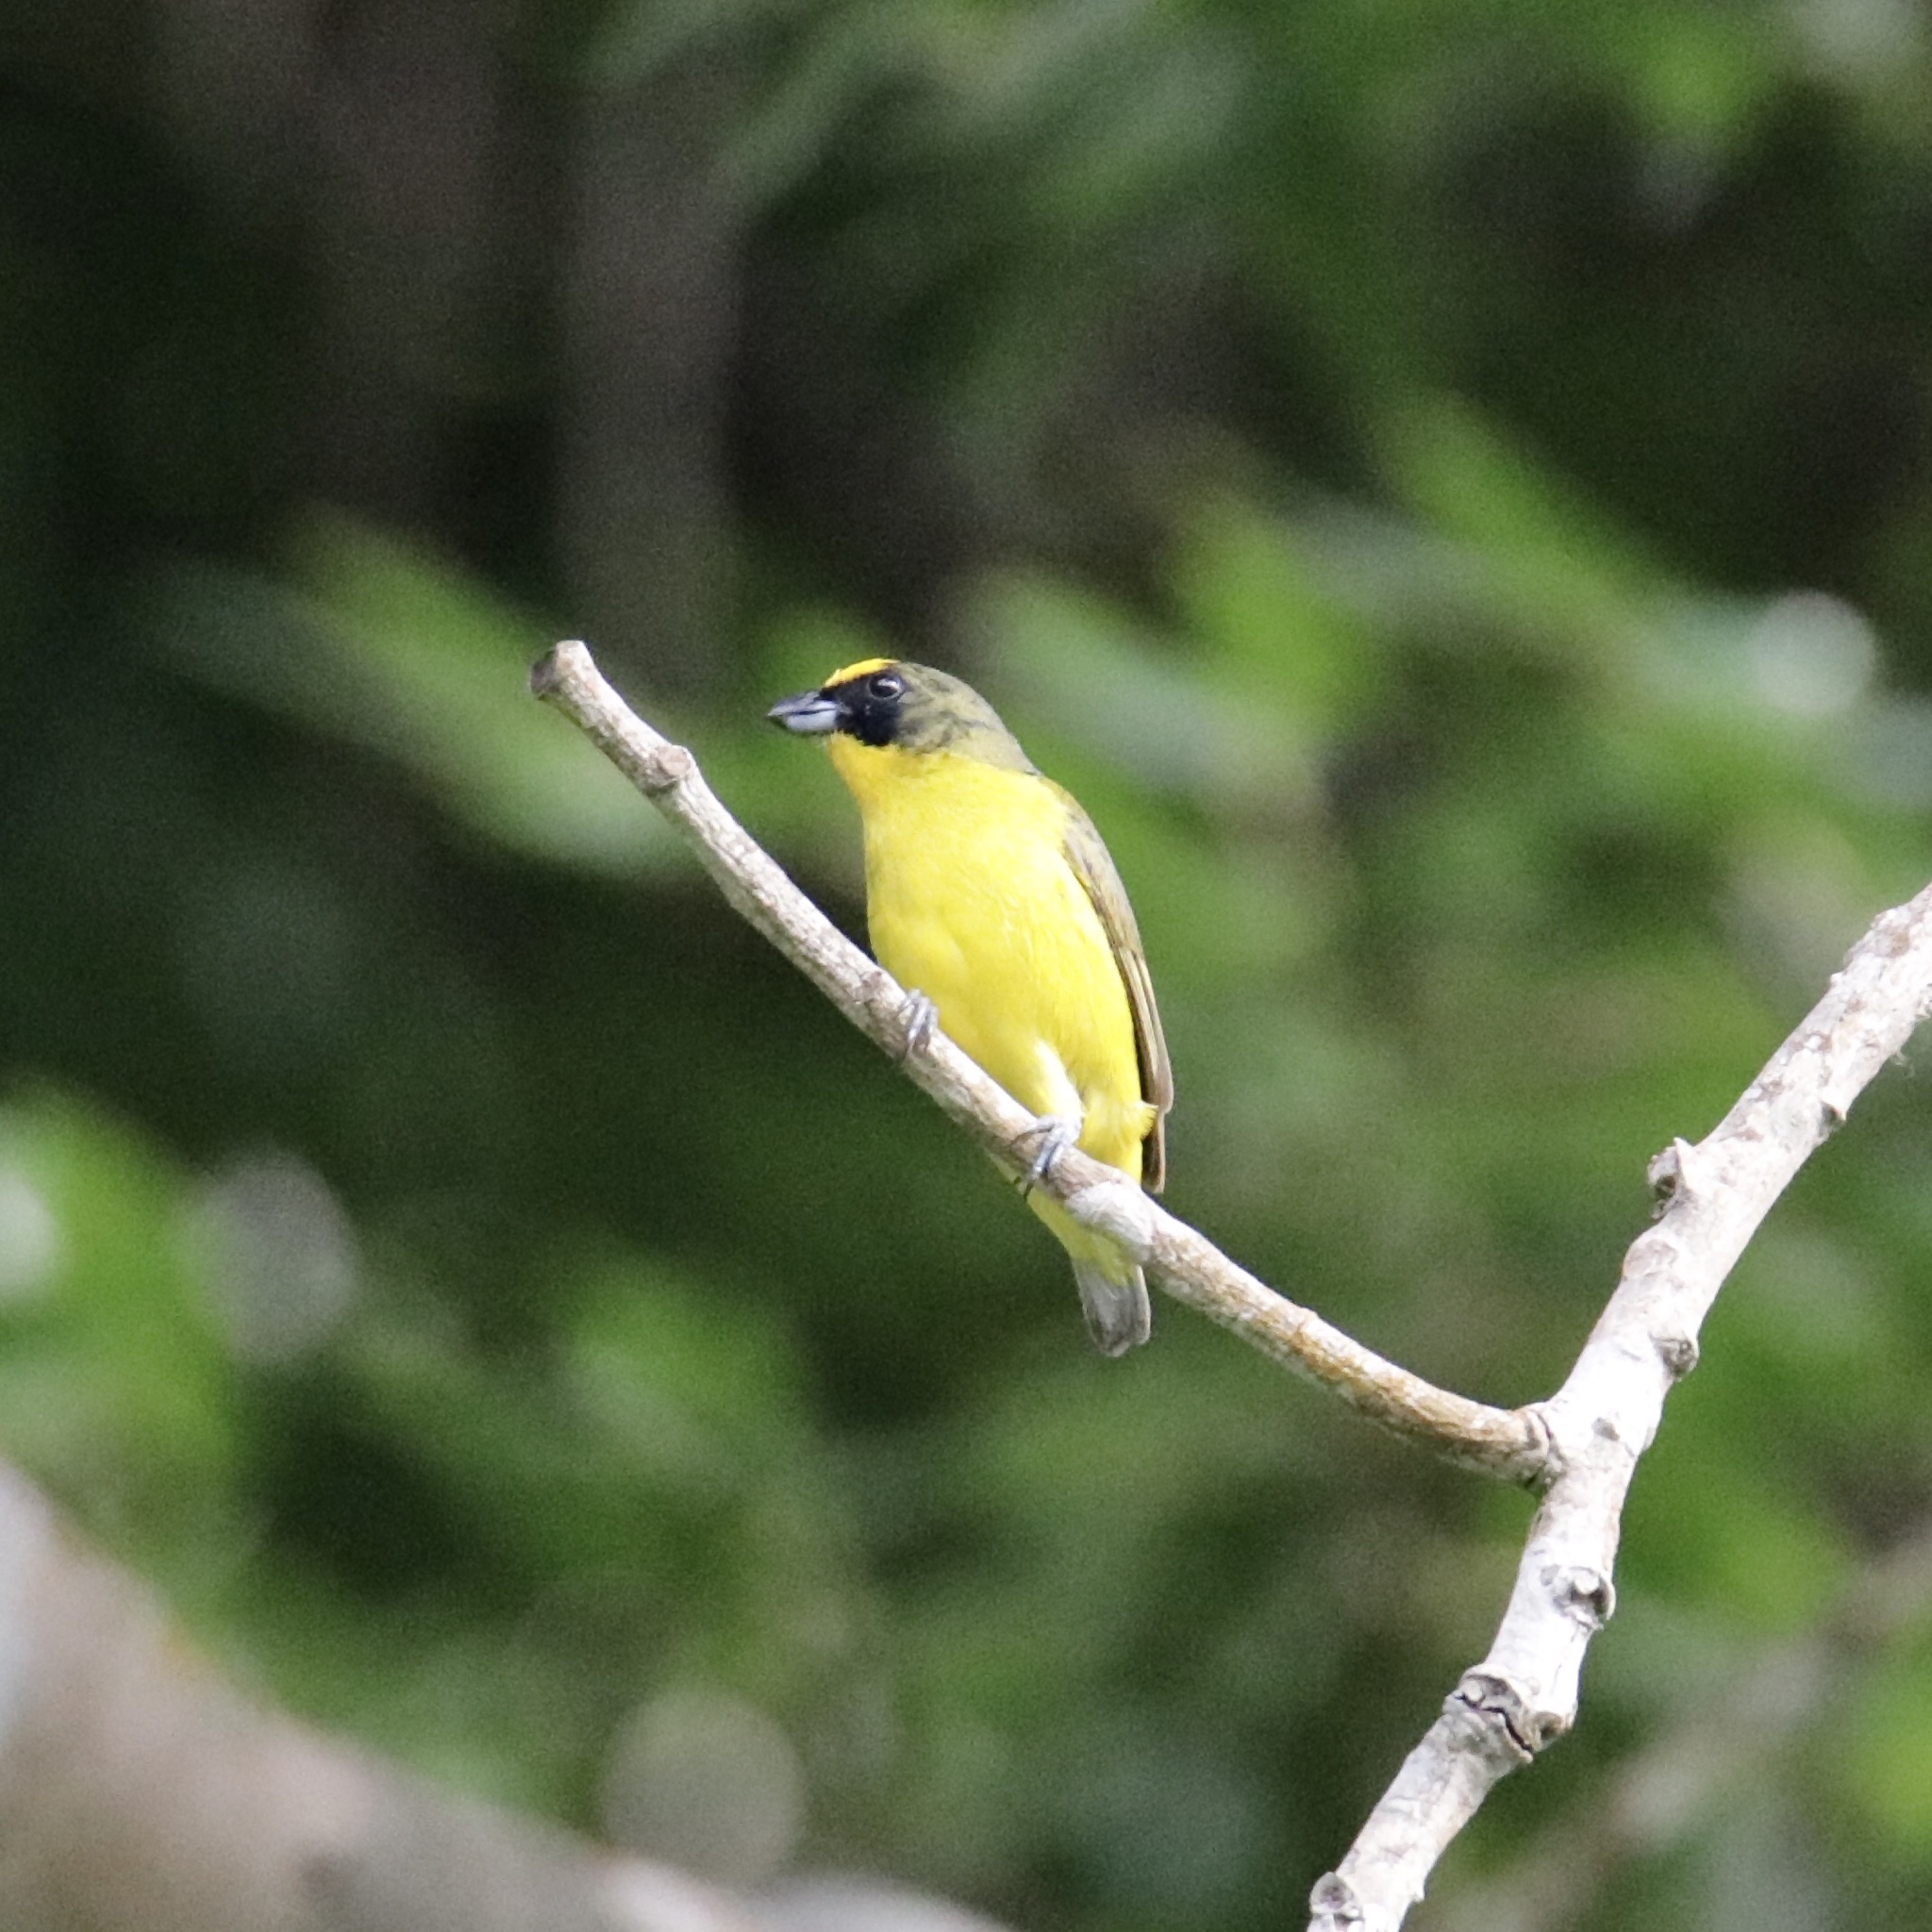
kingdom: Animalia
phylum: Chordata
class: Aves
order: Passeriformes
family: Fringillidae
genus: Euphonia
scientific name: Euphonia laniirostris
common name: Thick-billed euphonia
